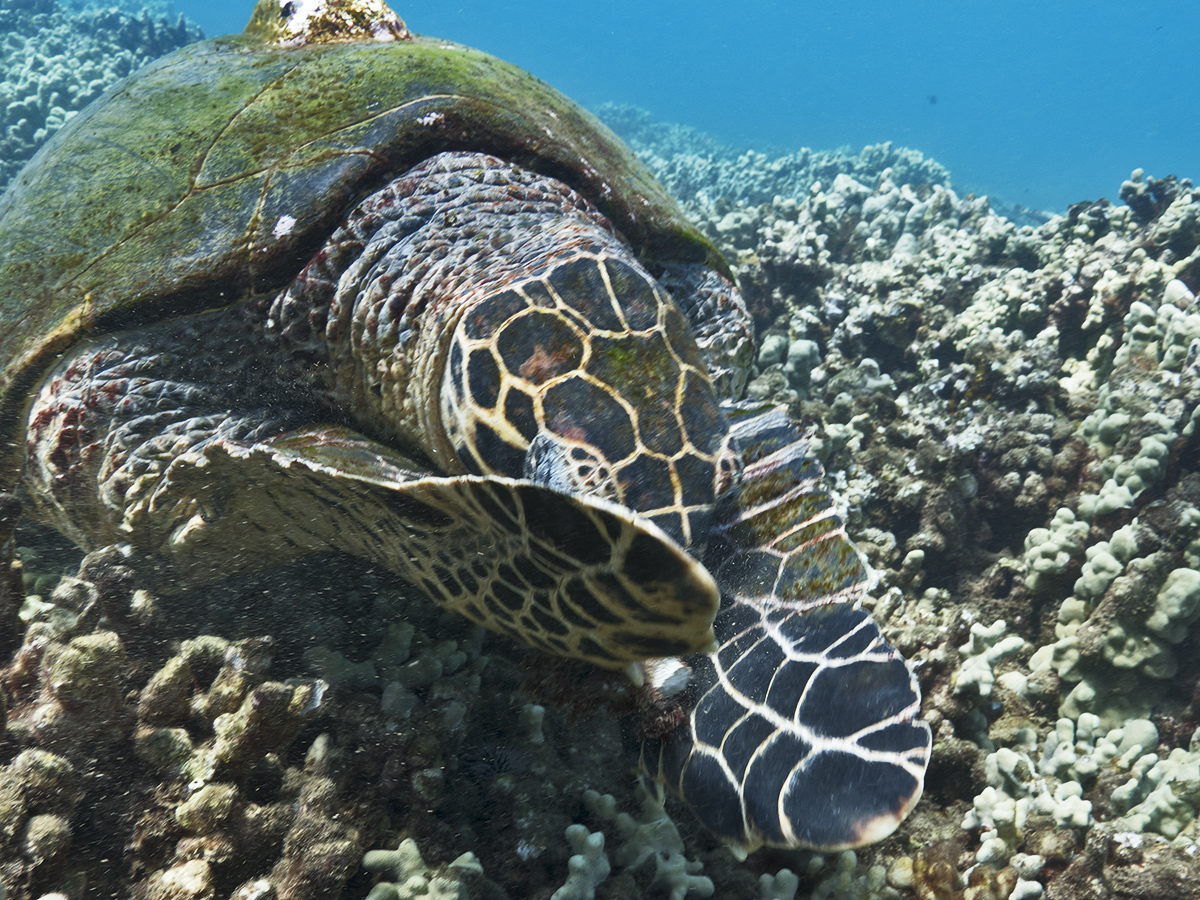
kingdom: Animalia
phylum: Chordata
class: Testudines
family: Cheloniidae
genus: Eretmochelys
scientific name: Eretmochelys imbricata
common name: Hawksbill turtle
